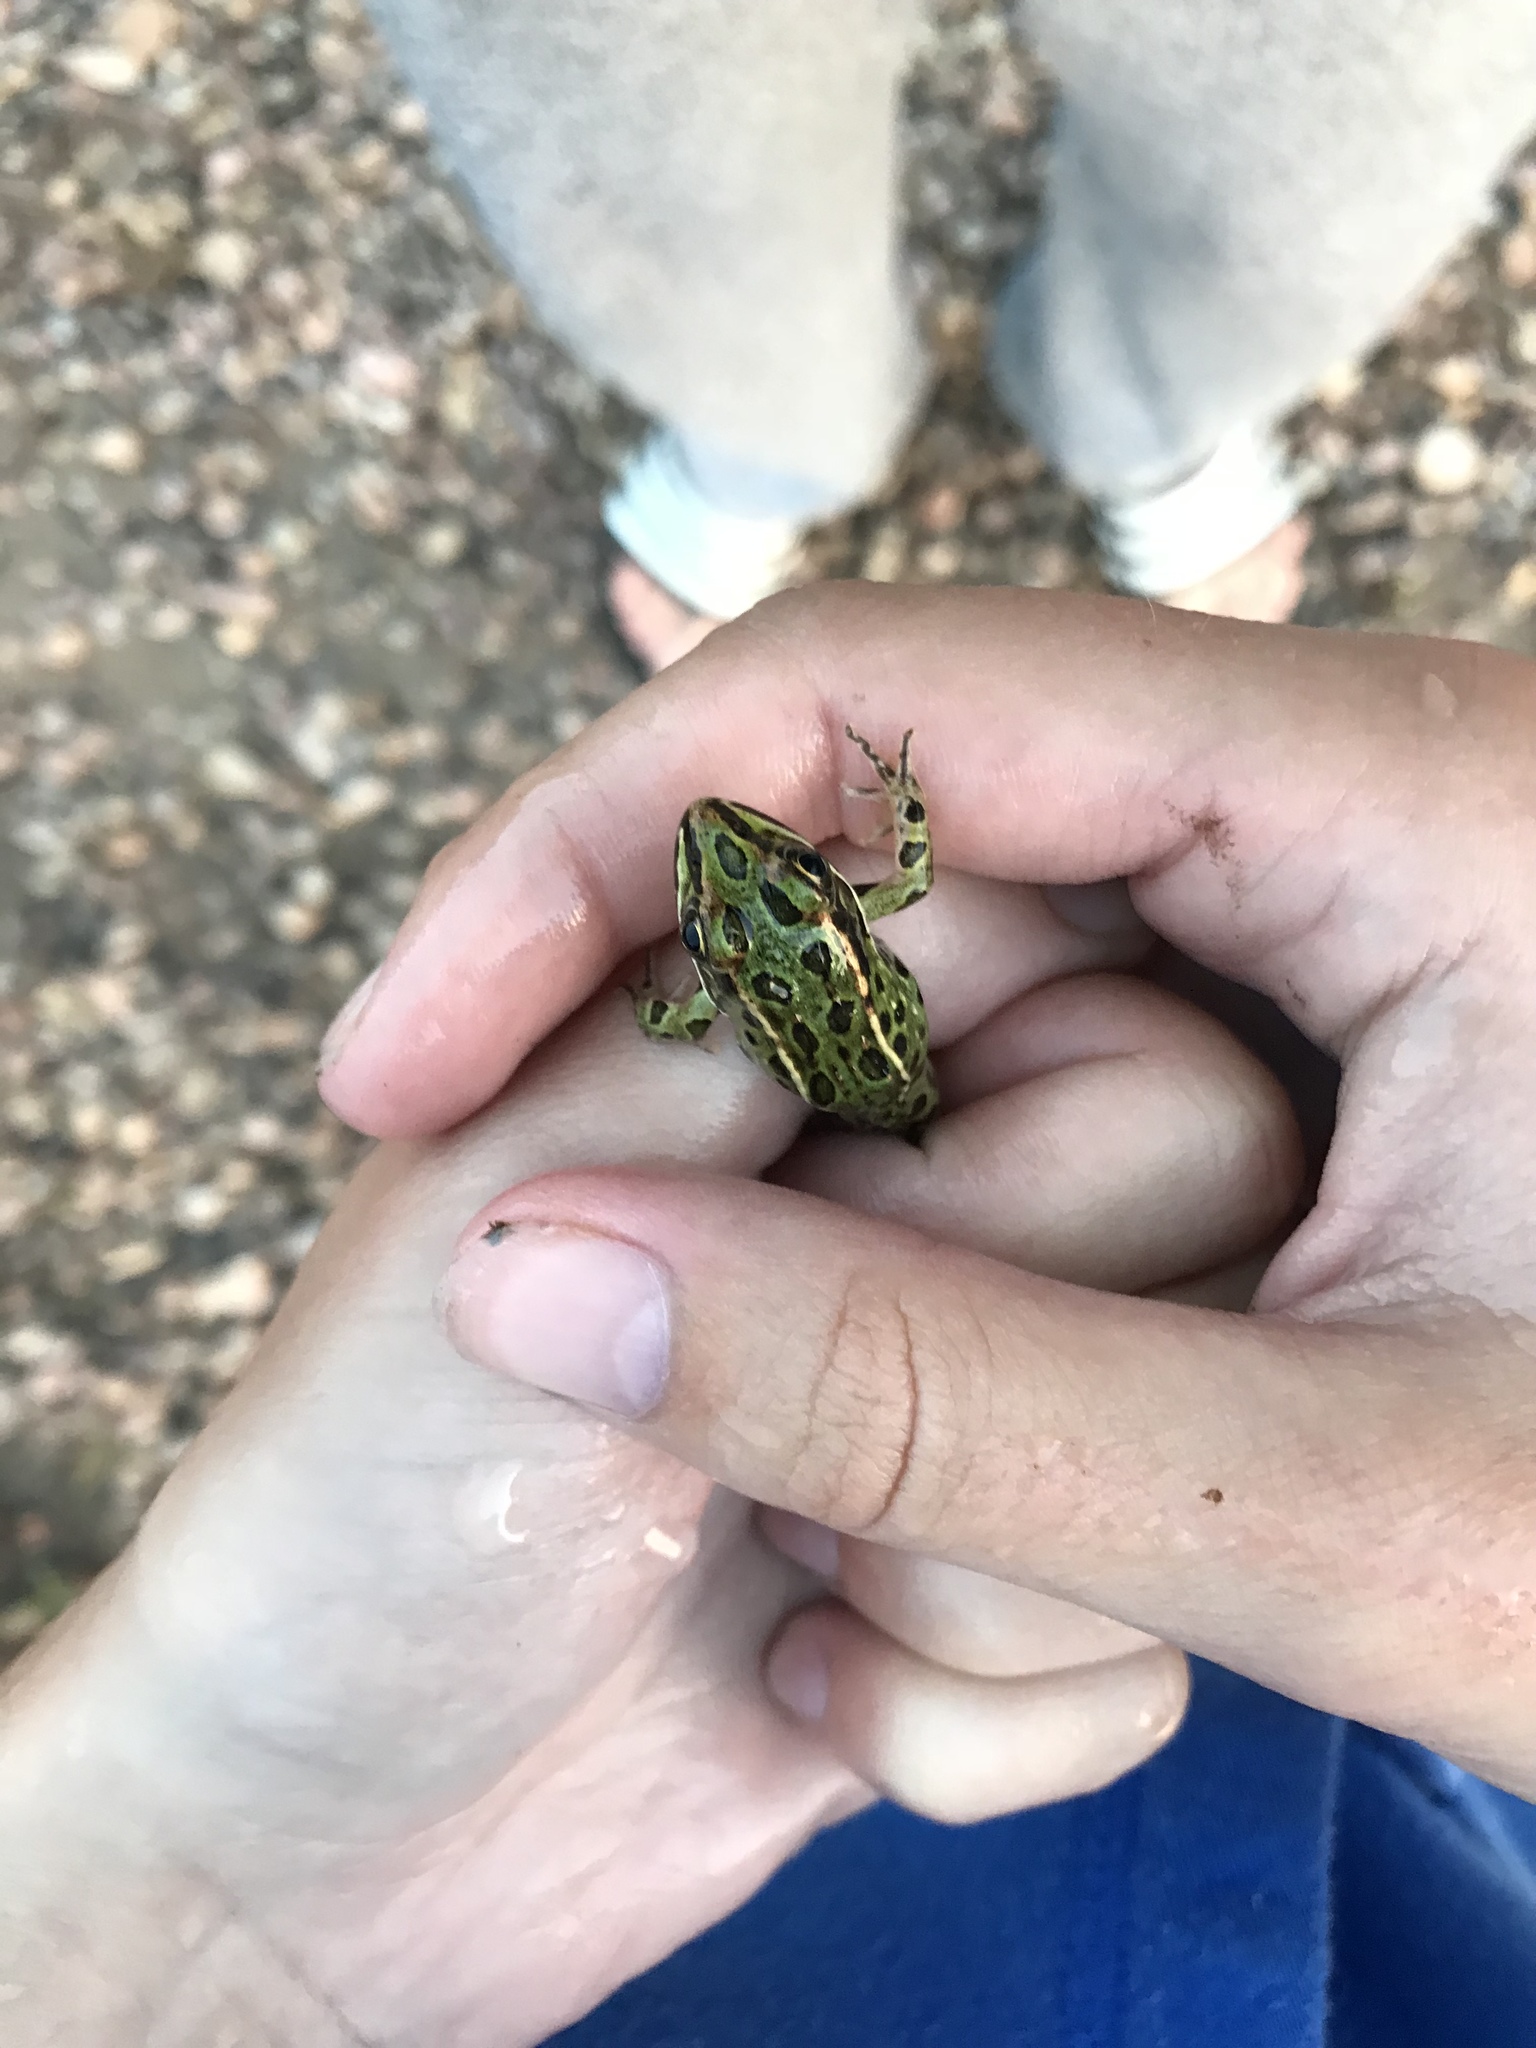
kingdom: Animalia
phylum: Chordata
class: Amphibia
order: Anura
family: Ranidae
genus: Lithobates
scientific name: Lithobates pipiens
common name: Northern leopard frog
